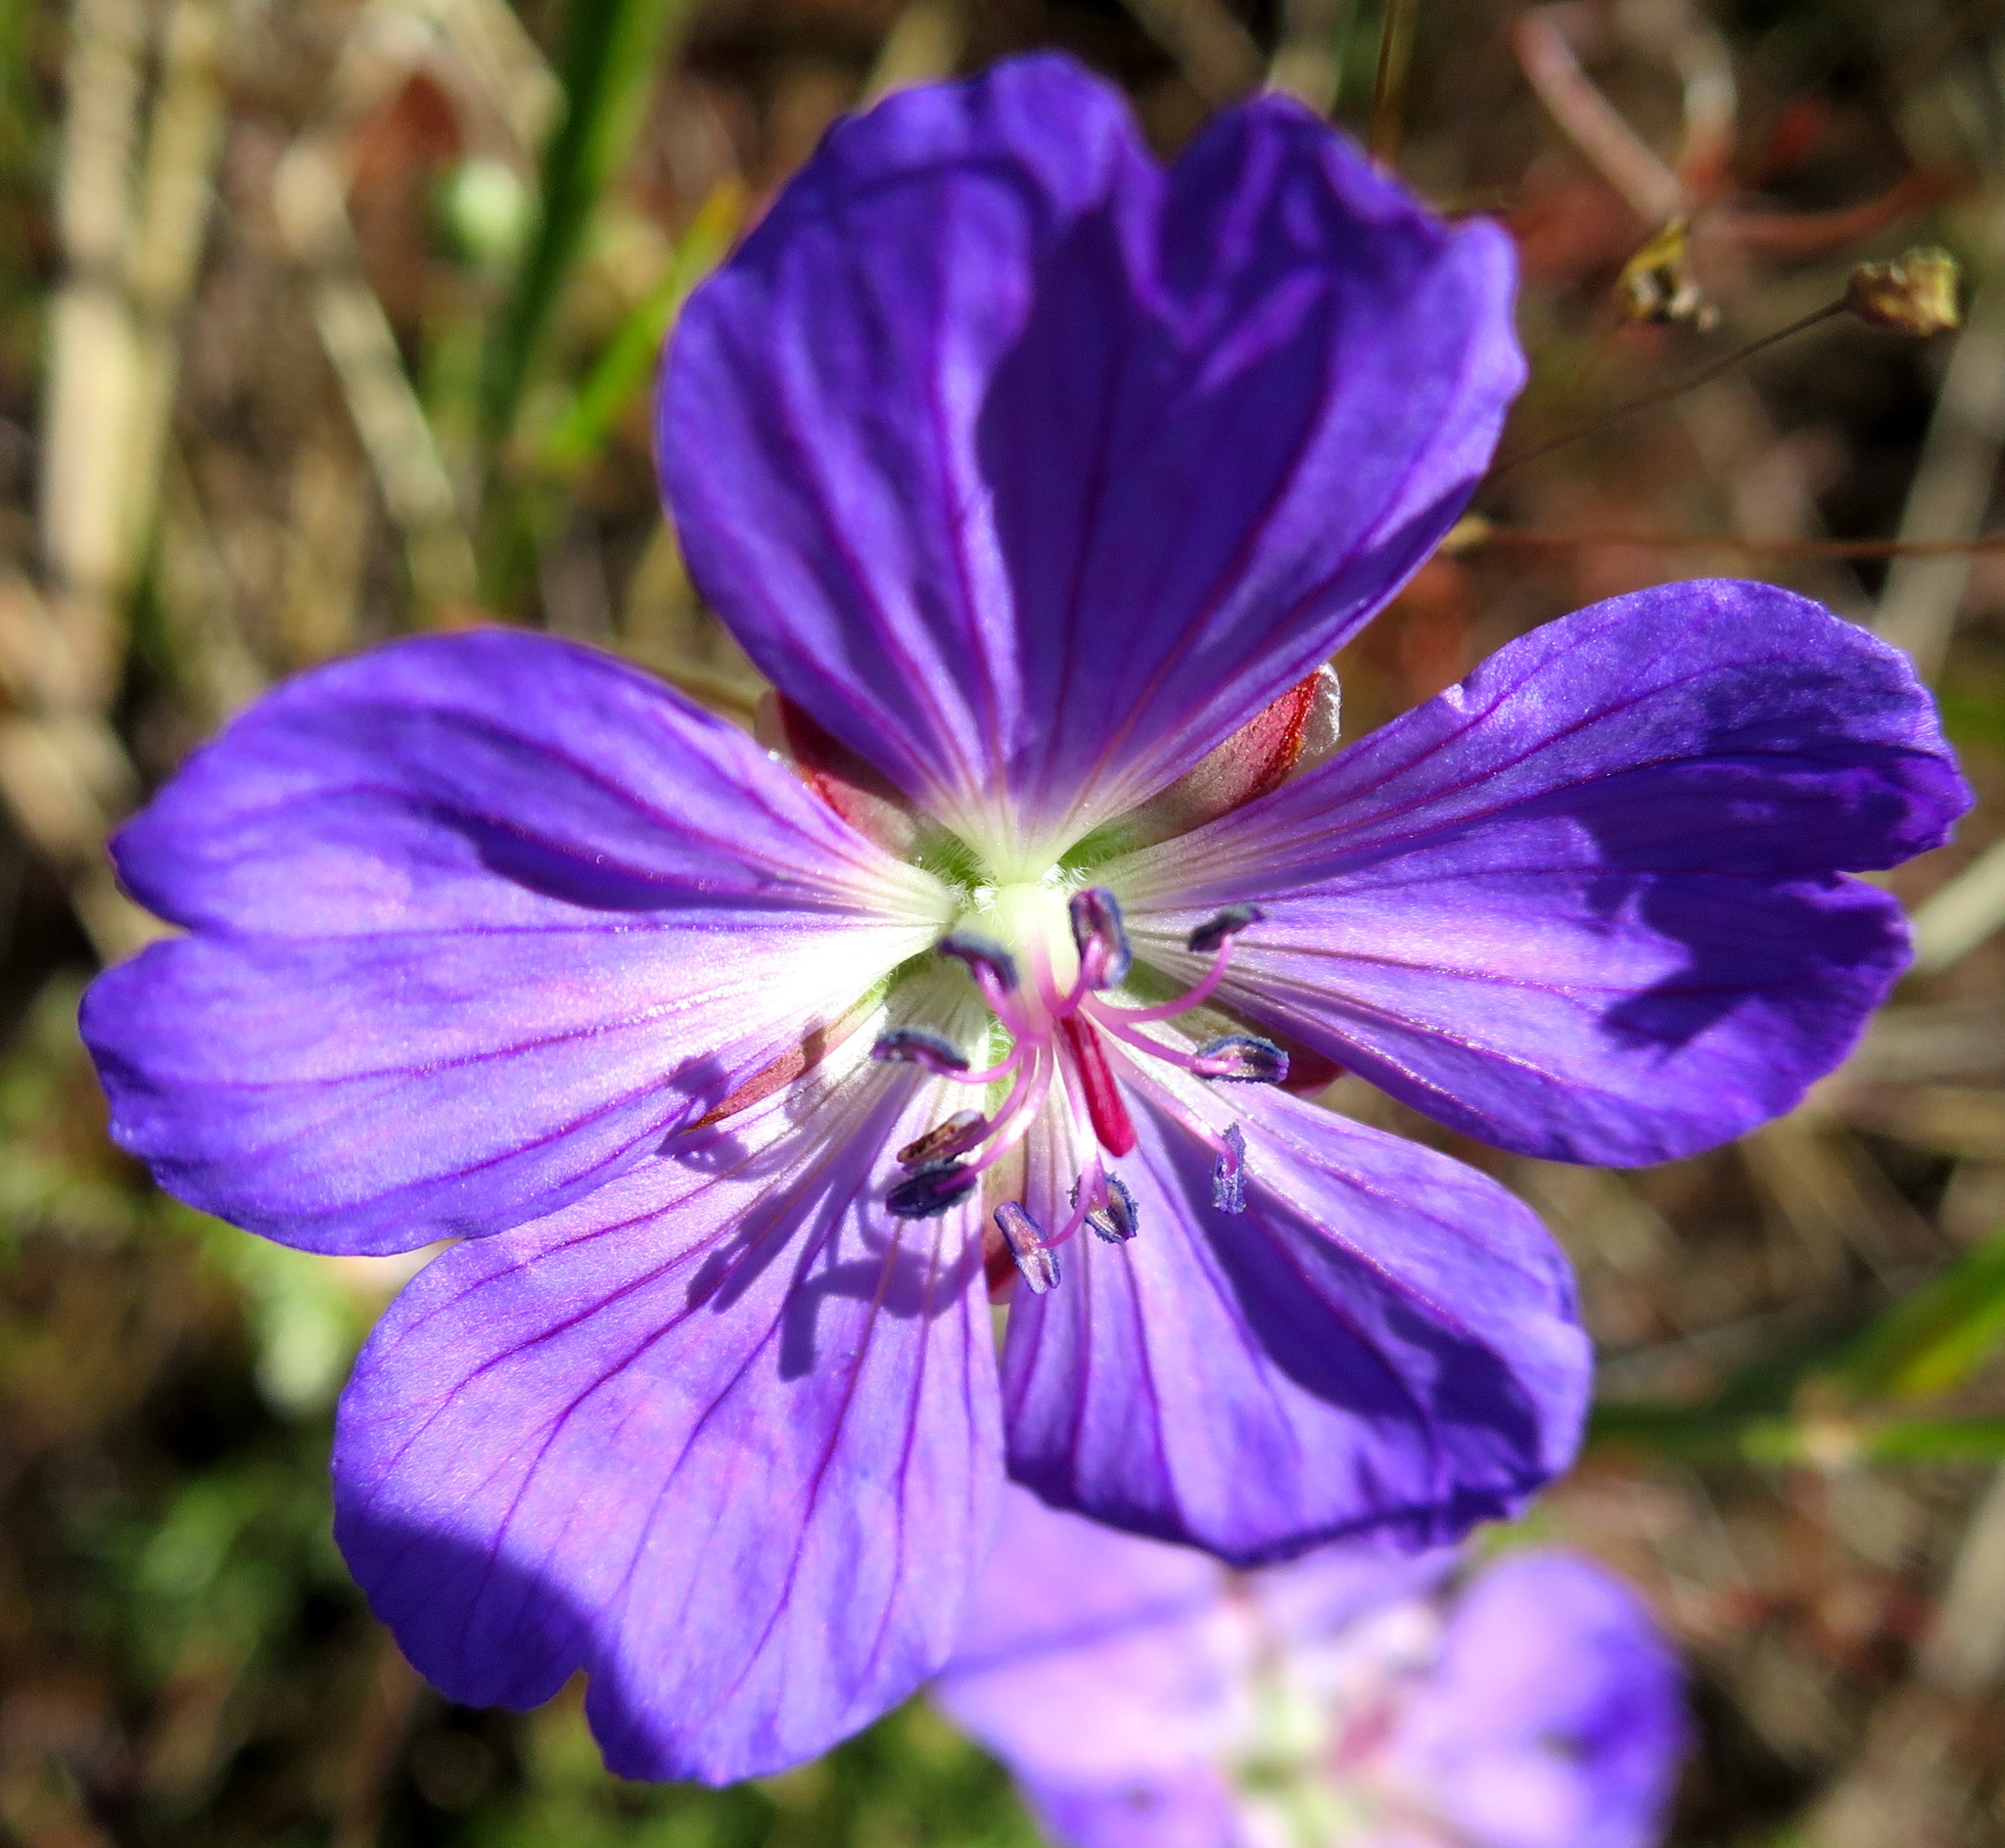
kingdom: Plantae
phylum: Tracheophyta
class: Magnoliopsida
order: Geraniales
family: Geraniaceae
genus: Geranium
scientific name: Geranium incanum
